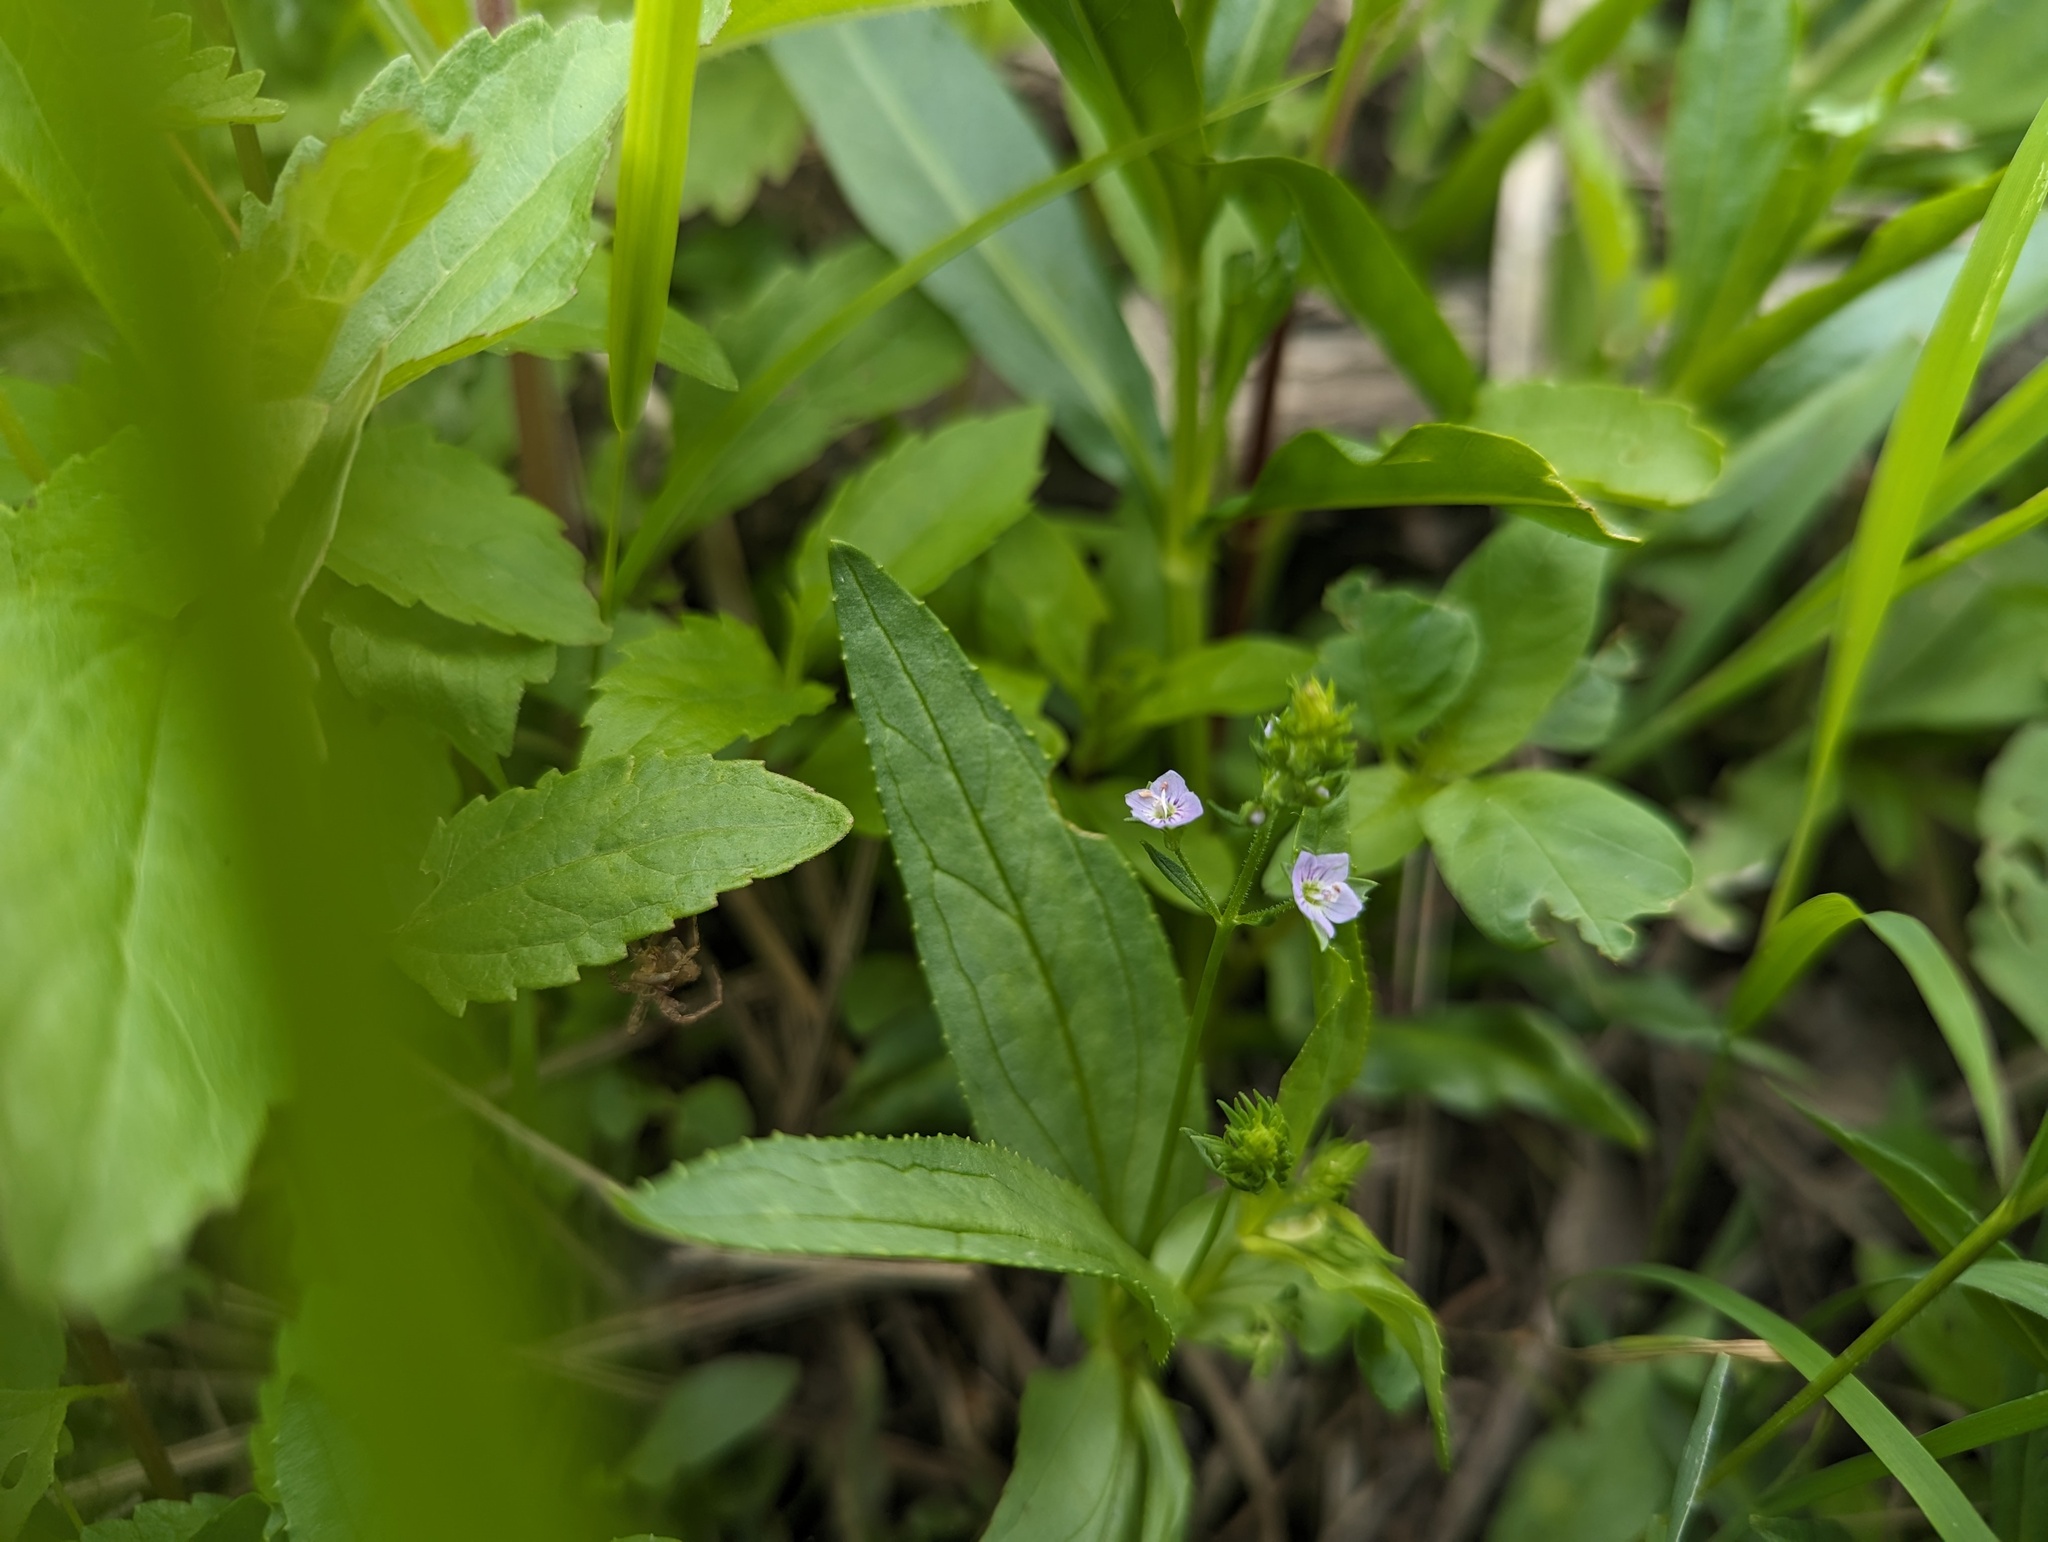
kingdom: Plantae
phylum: Tracheophyta
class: Magnoliopsida
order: Lamiales
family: Plantaginaceae
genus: Veronica
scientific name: Veronica catenata
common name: Pink water-speedwell
